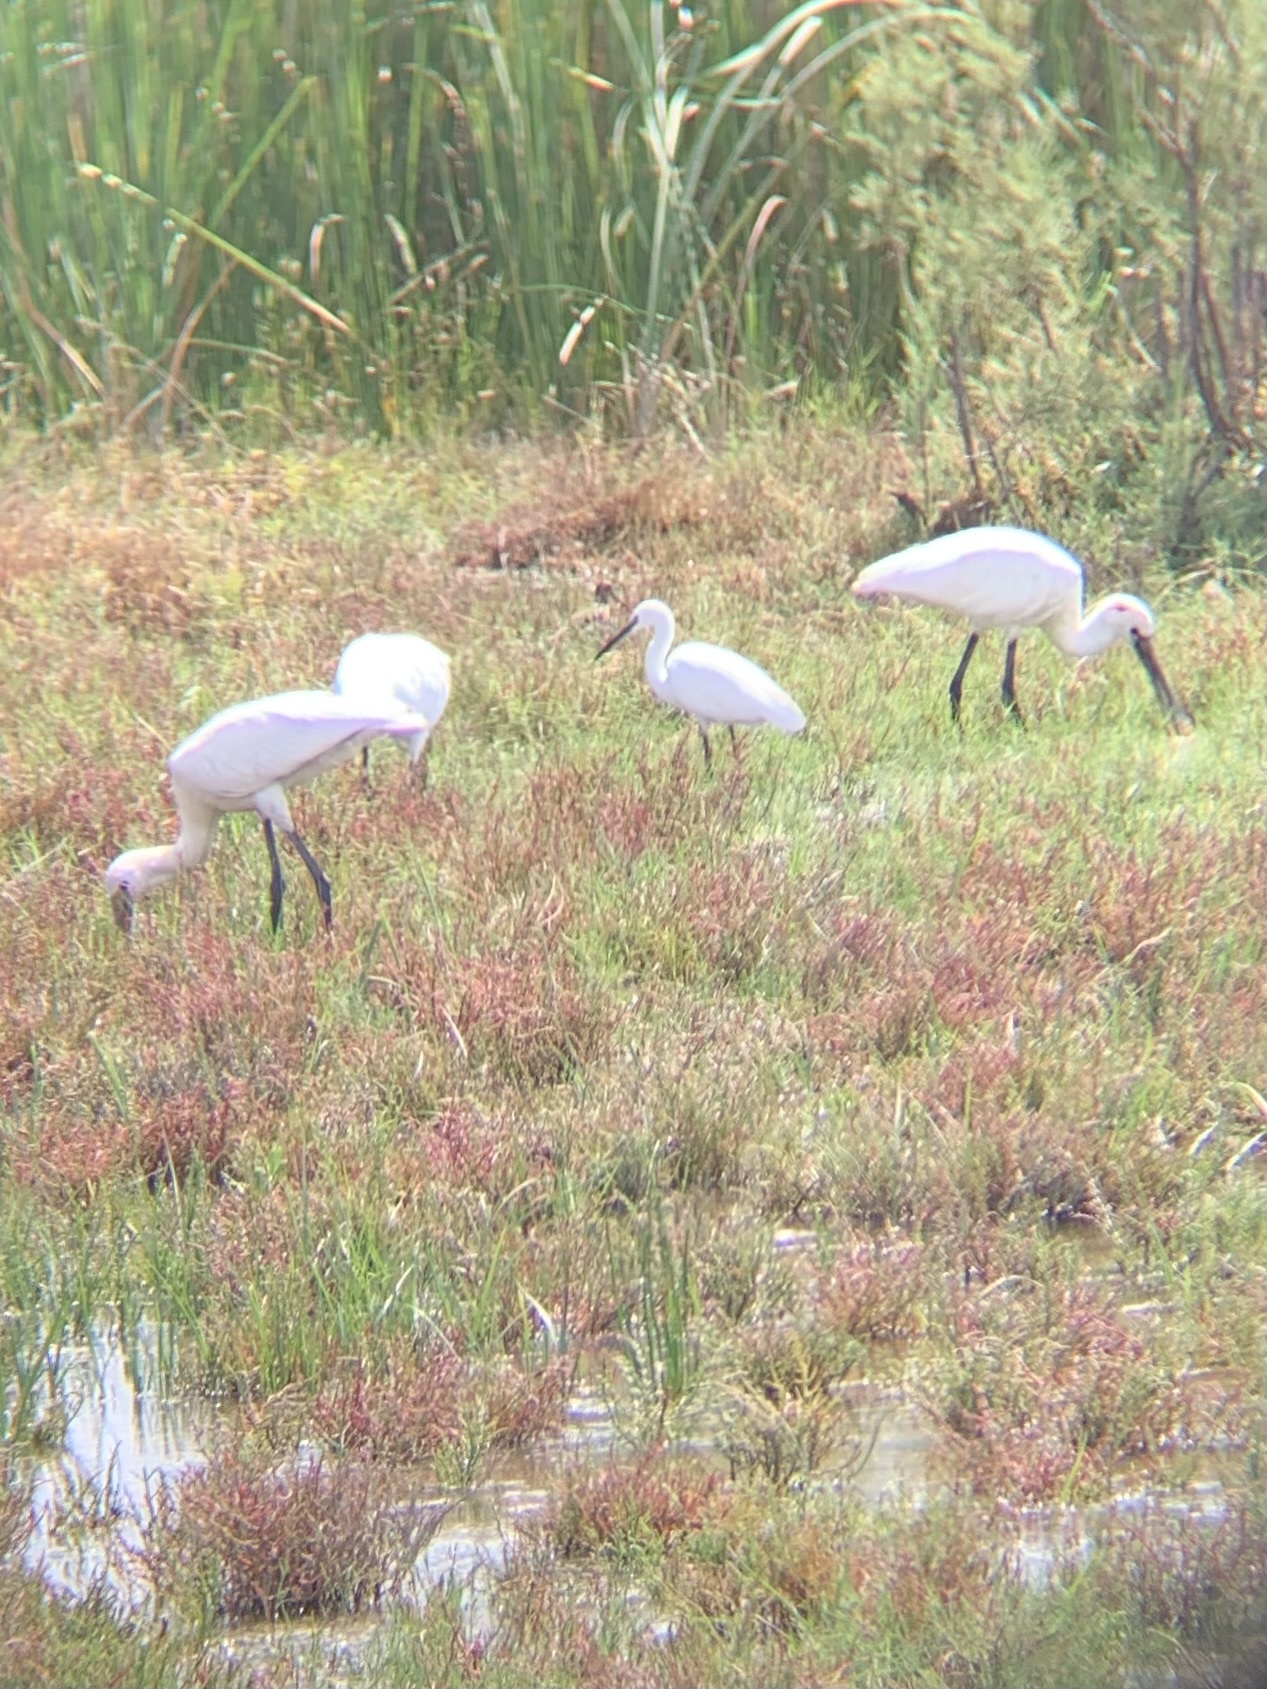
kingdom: Animalia
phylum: Chordata
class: Aves
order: Pelecaniformes
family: Ardeidae
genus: Egretta
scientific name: Egretta garzetta
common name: Little egret
